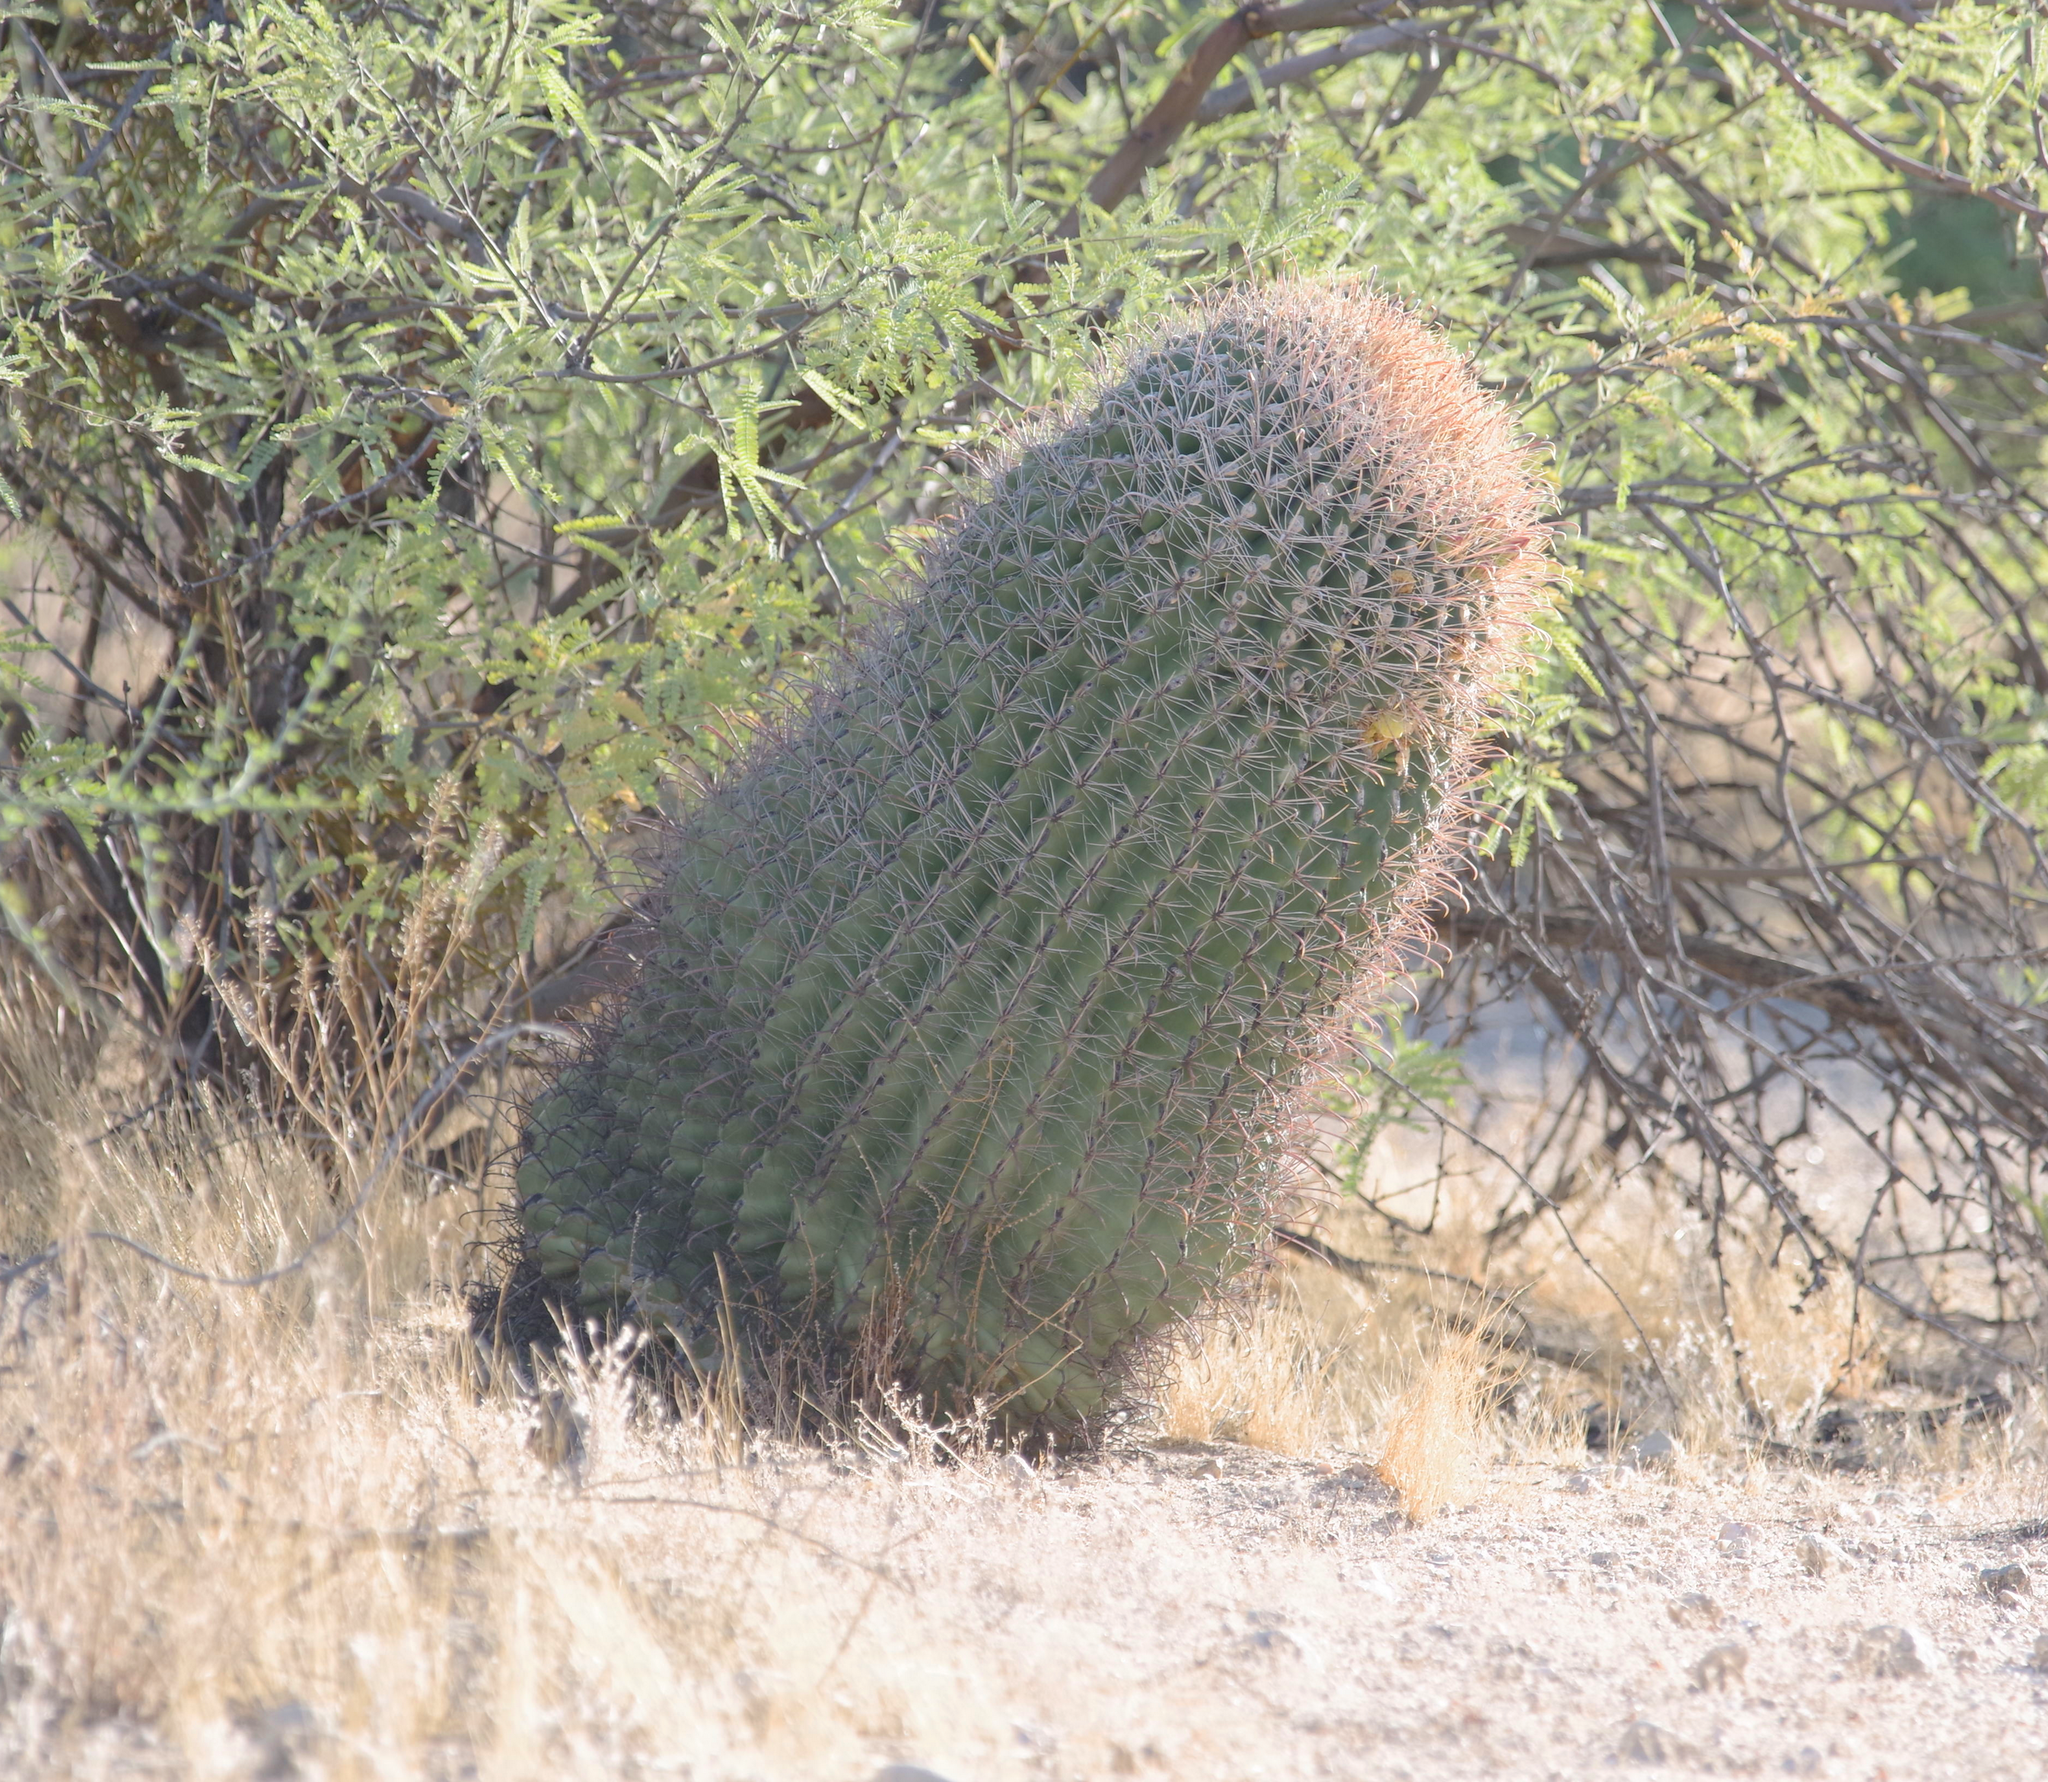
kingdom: Plantae
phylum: Tracheophyta
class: Magnoliopsida
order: Caryophyllales
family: Cactaceae
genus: Ferocactus
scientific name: Ferocactus wislizeni
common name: Candy barrel cactus
